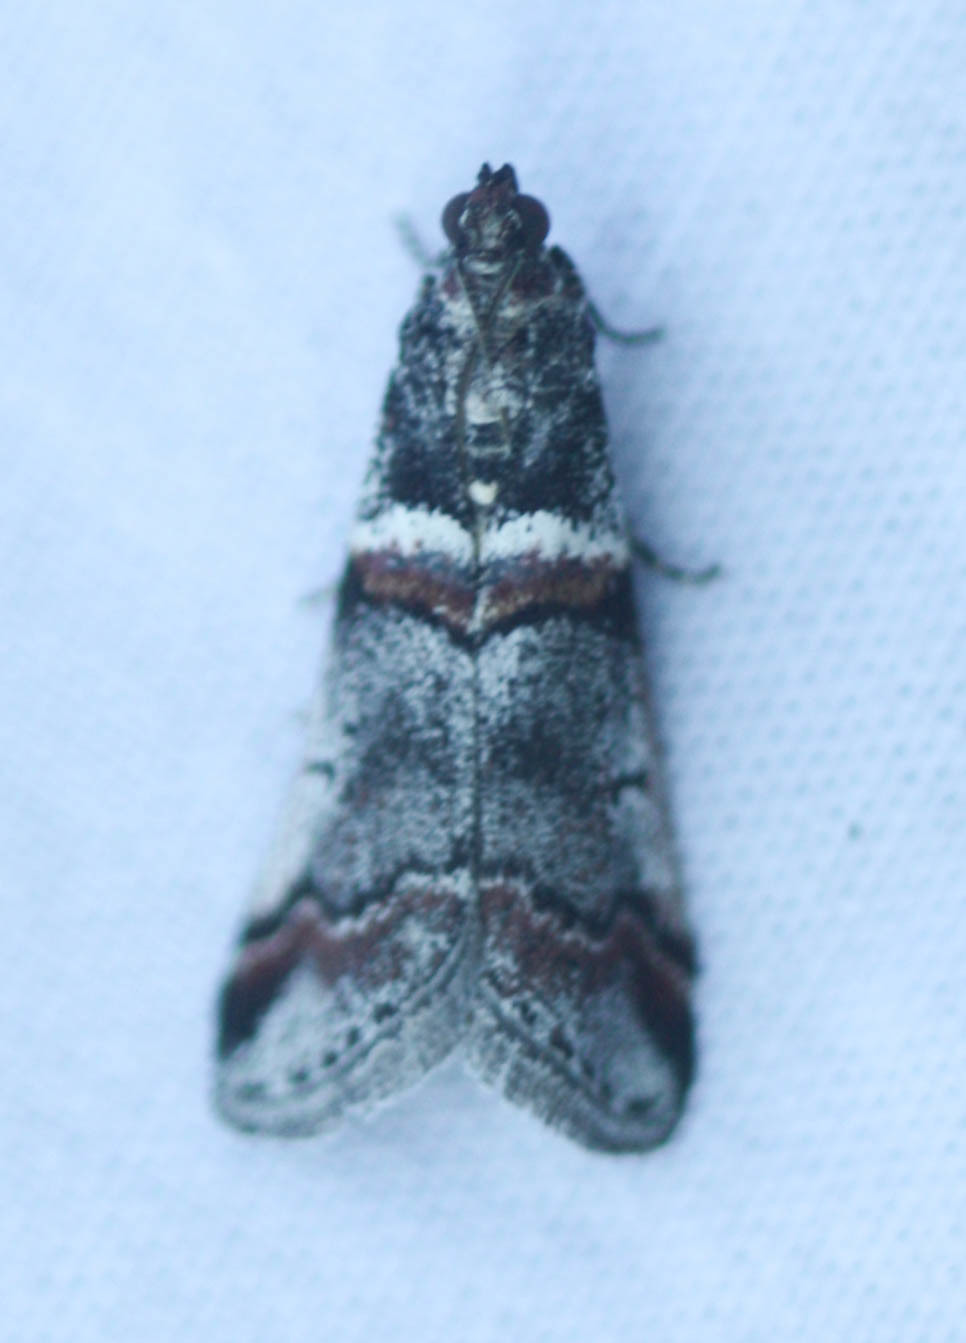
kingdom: Animalia
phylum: Arthropoda
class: Insecta
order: Lepidoptera
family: Pyralidae
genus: Acrobasis
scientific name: Acrobasis tricolorella
